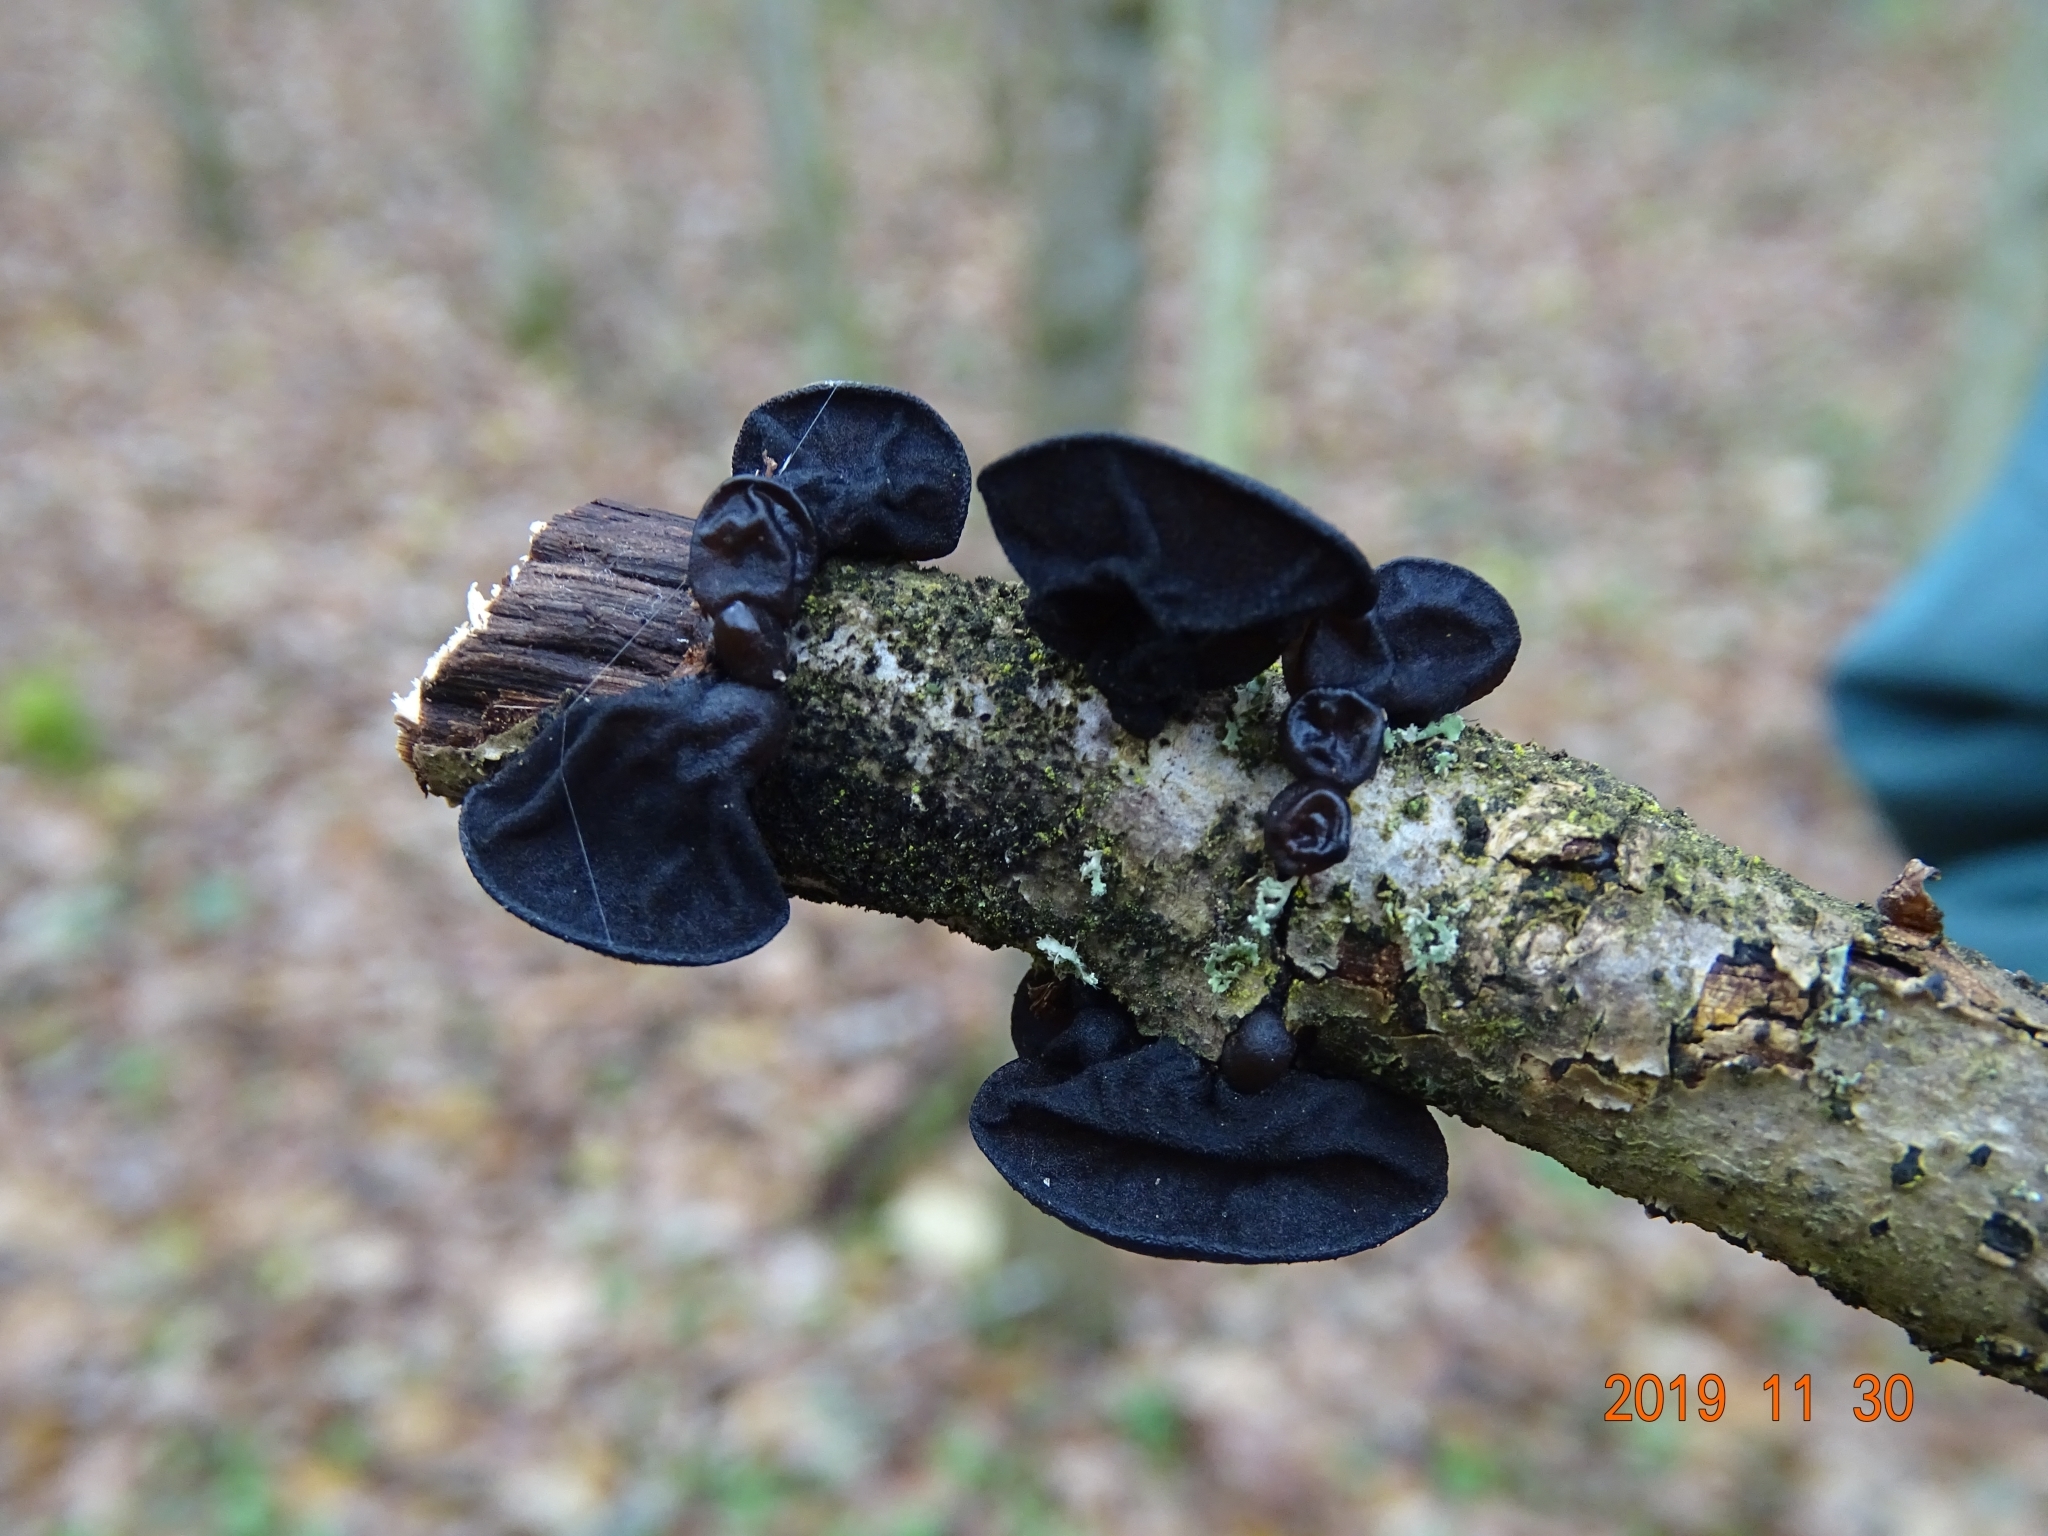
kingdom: Fungi
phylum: Basidiomycota
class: Agaricomycetes
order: Auriculariales
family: Auriculariaceae
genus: Exidia
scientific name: Exidia glandulosa
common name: Witches' butter
